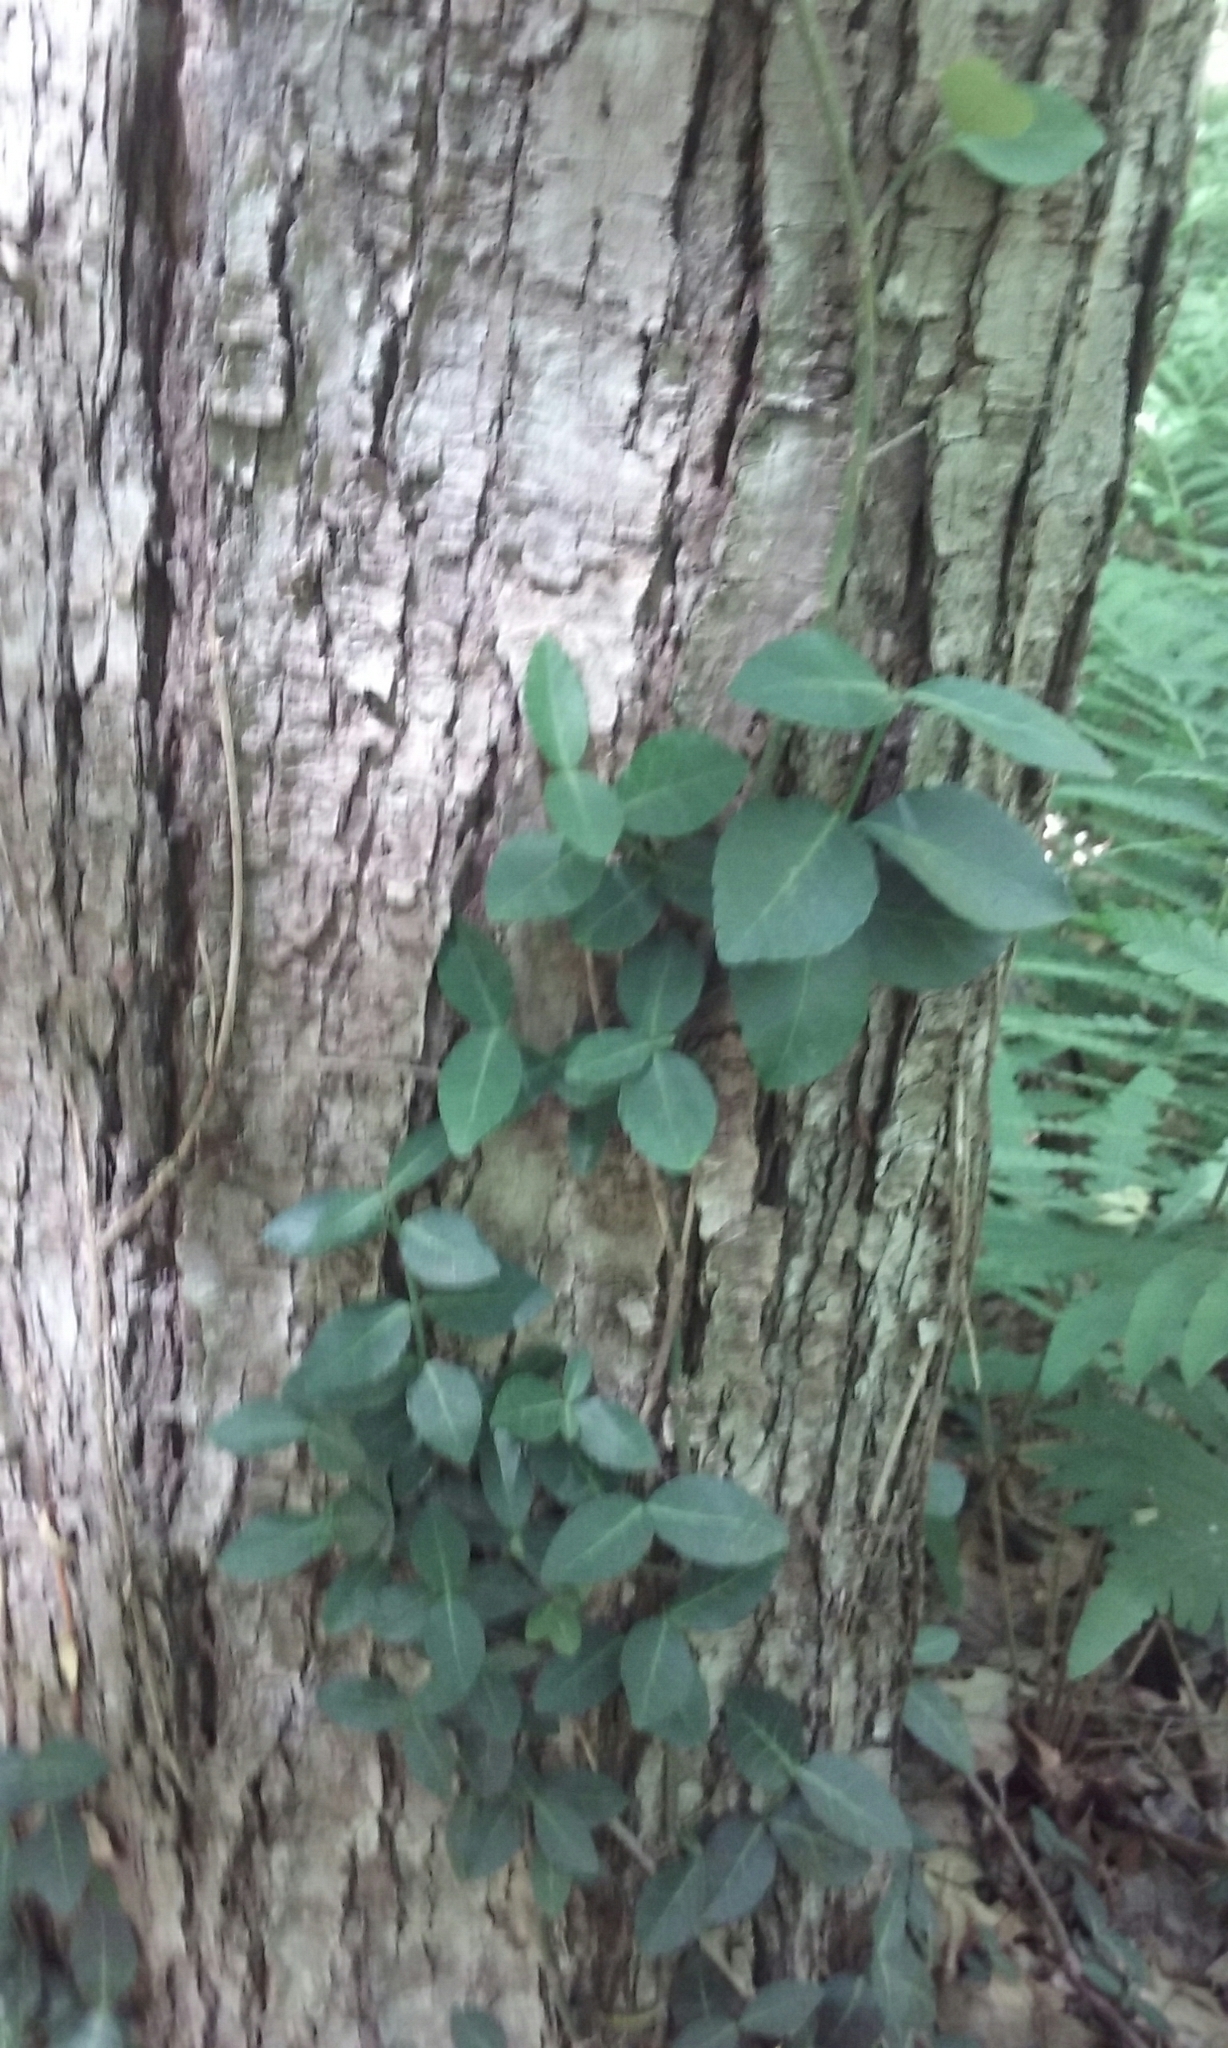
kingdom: Plantae
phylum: Tracheophyta
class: Magnoliopsida
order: Celastrales
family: Celastraceae
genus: Euonymus
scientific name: Euonymus fortunei
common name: Climbing euonymus
